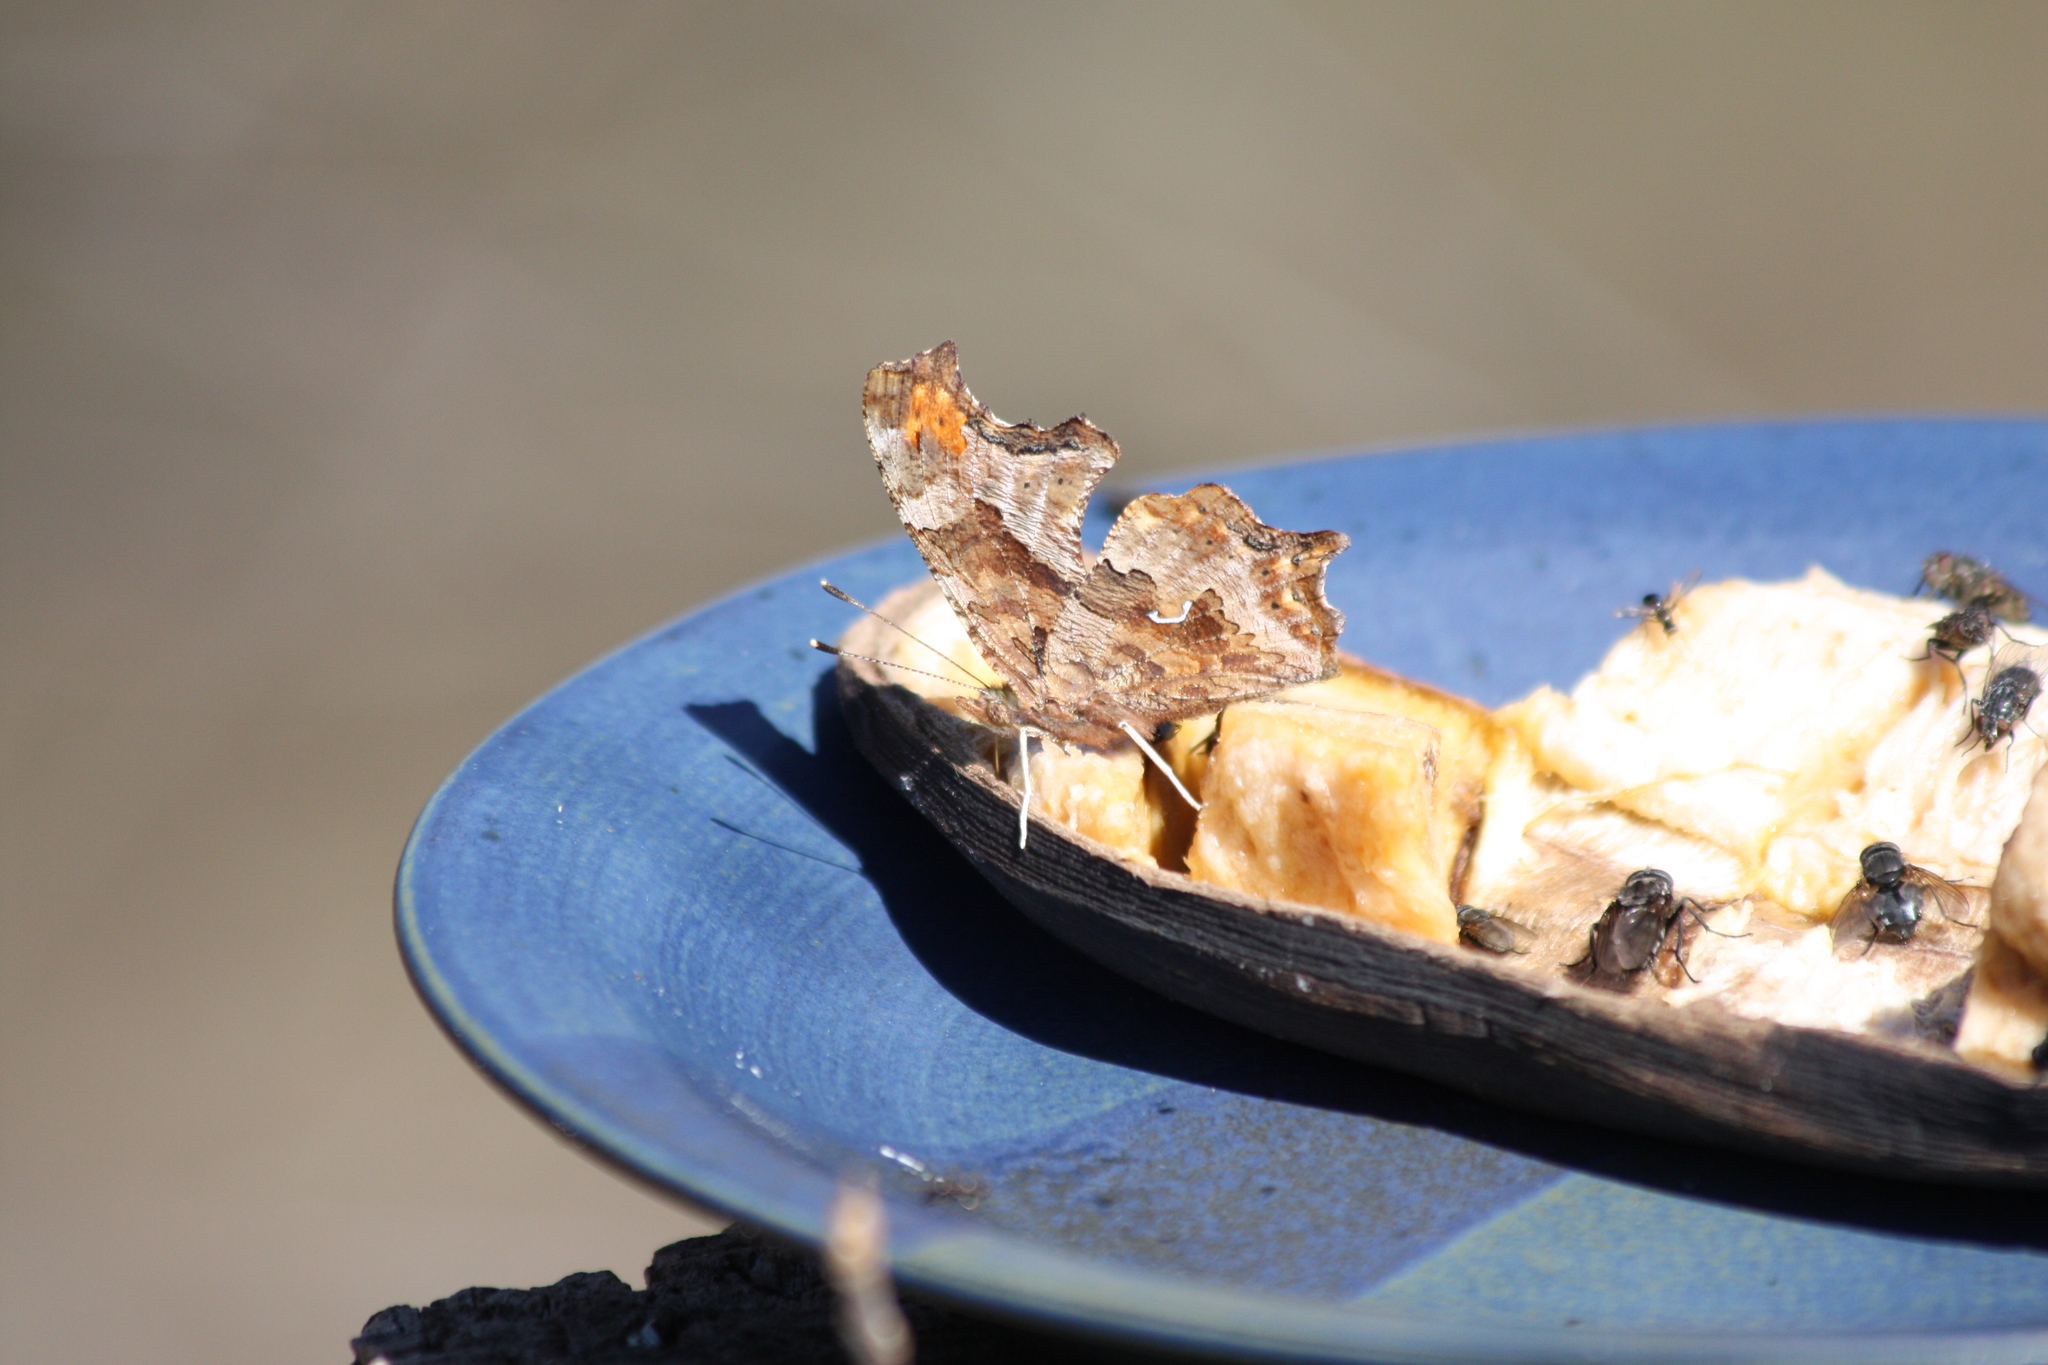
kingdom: Animalia
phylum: Arthropoda
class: Insecta
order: Lepidoptera
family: Nymphalidae
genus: Polygonia
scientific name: Polygonia comma
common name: Eastern comma
